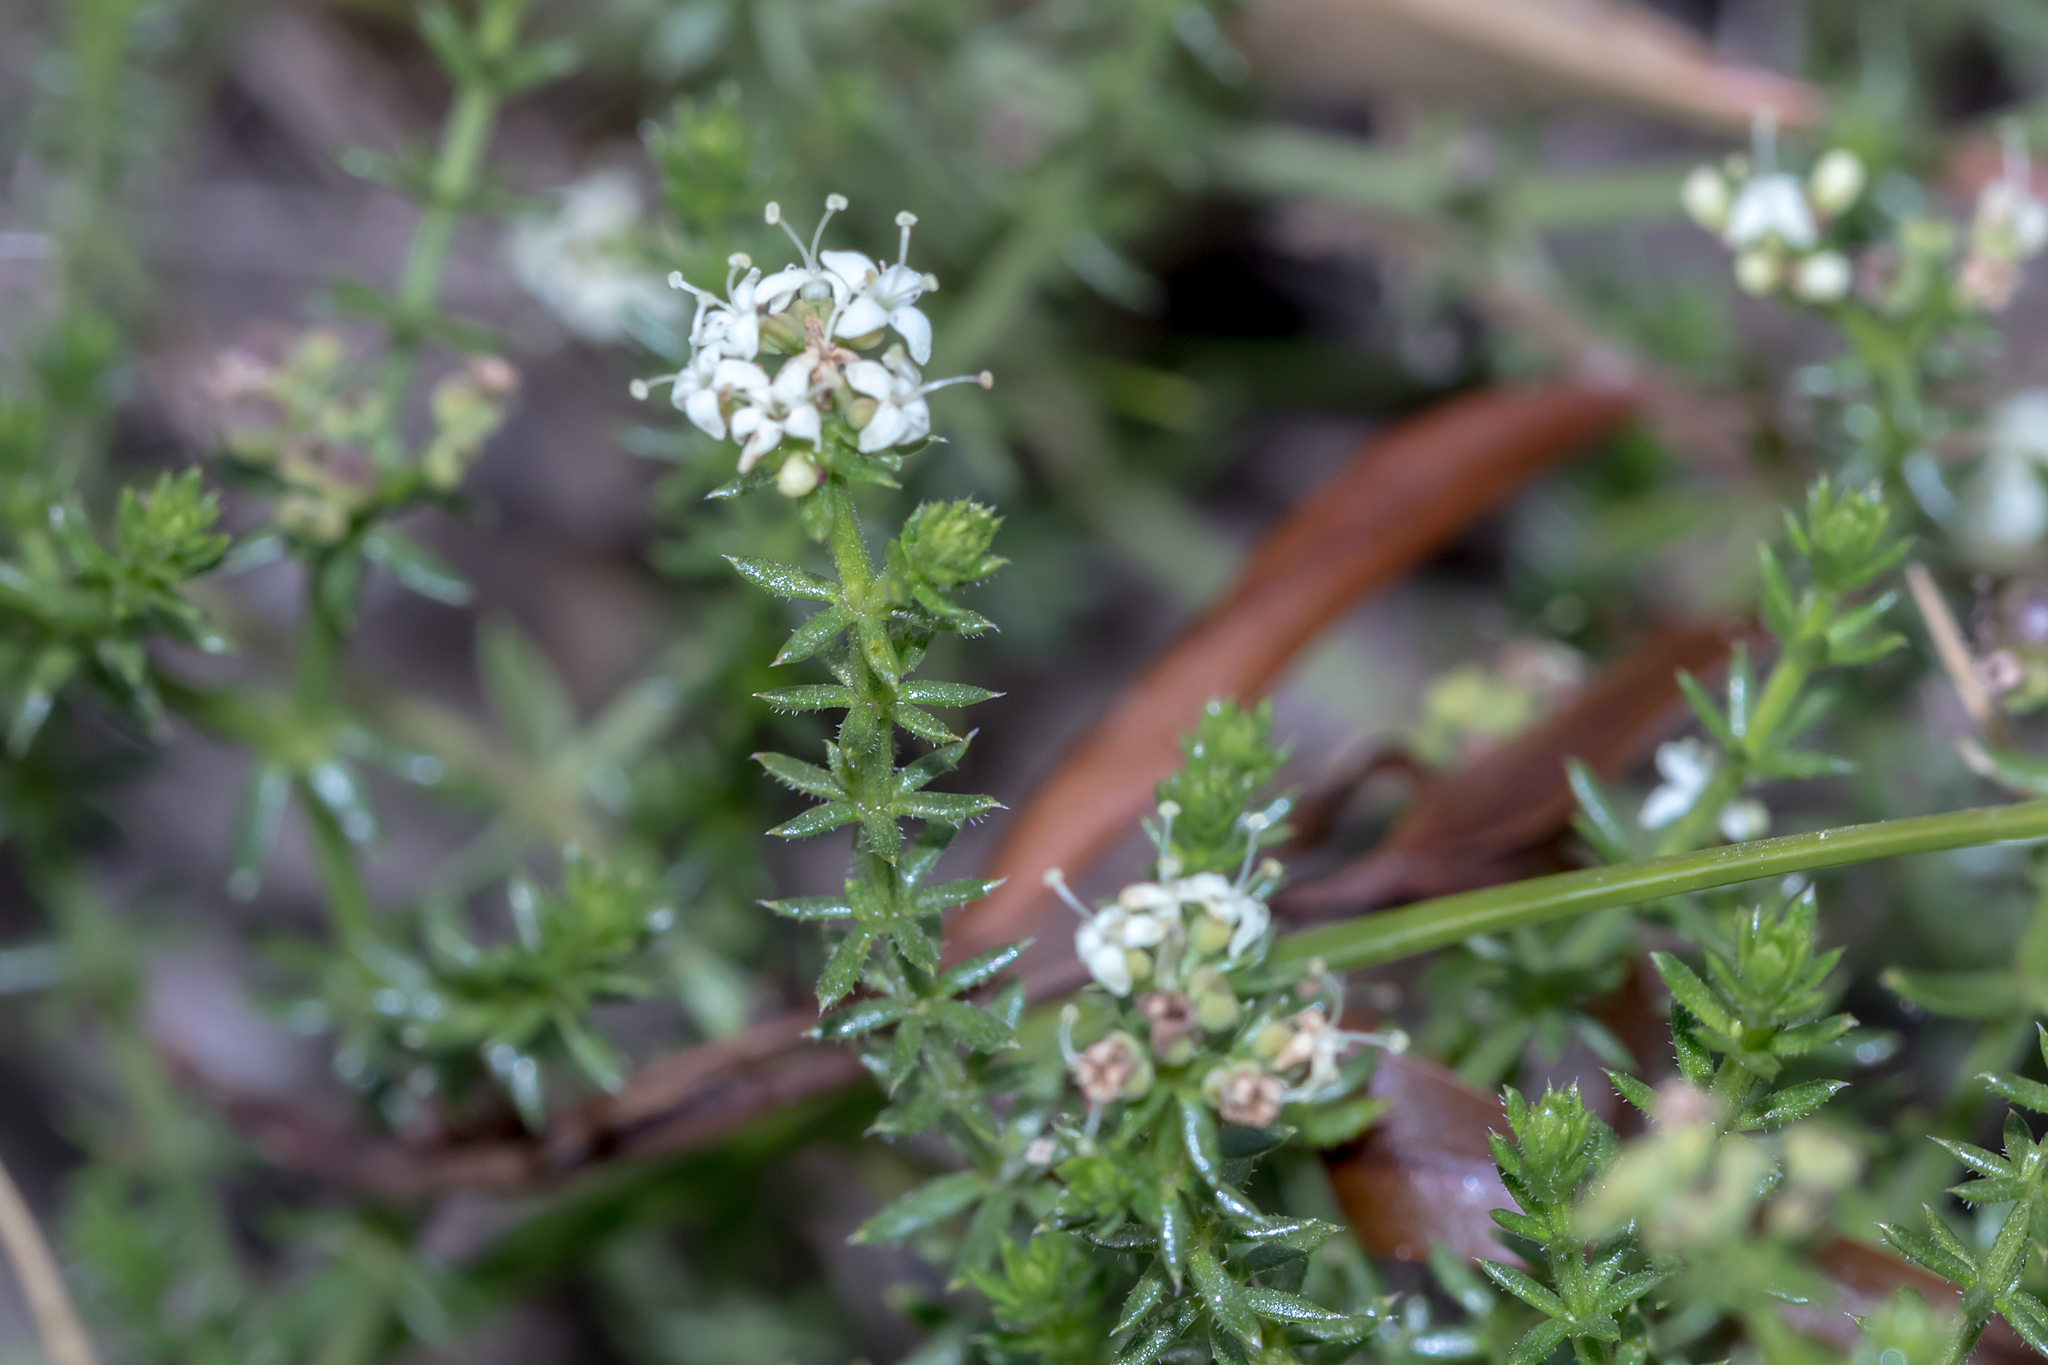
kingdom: Plantae
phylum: Tracheophyta
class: Magnoliopsida
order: Gentianales
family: Rubiaceae
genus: Asperula
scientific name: Asperula conferta
